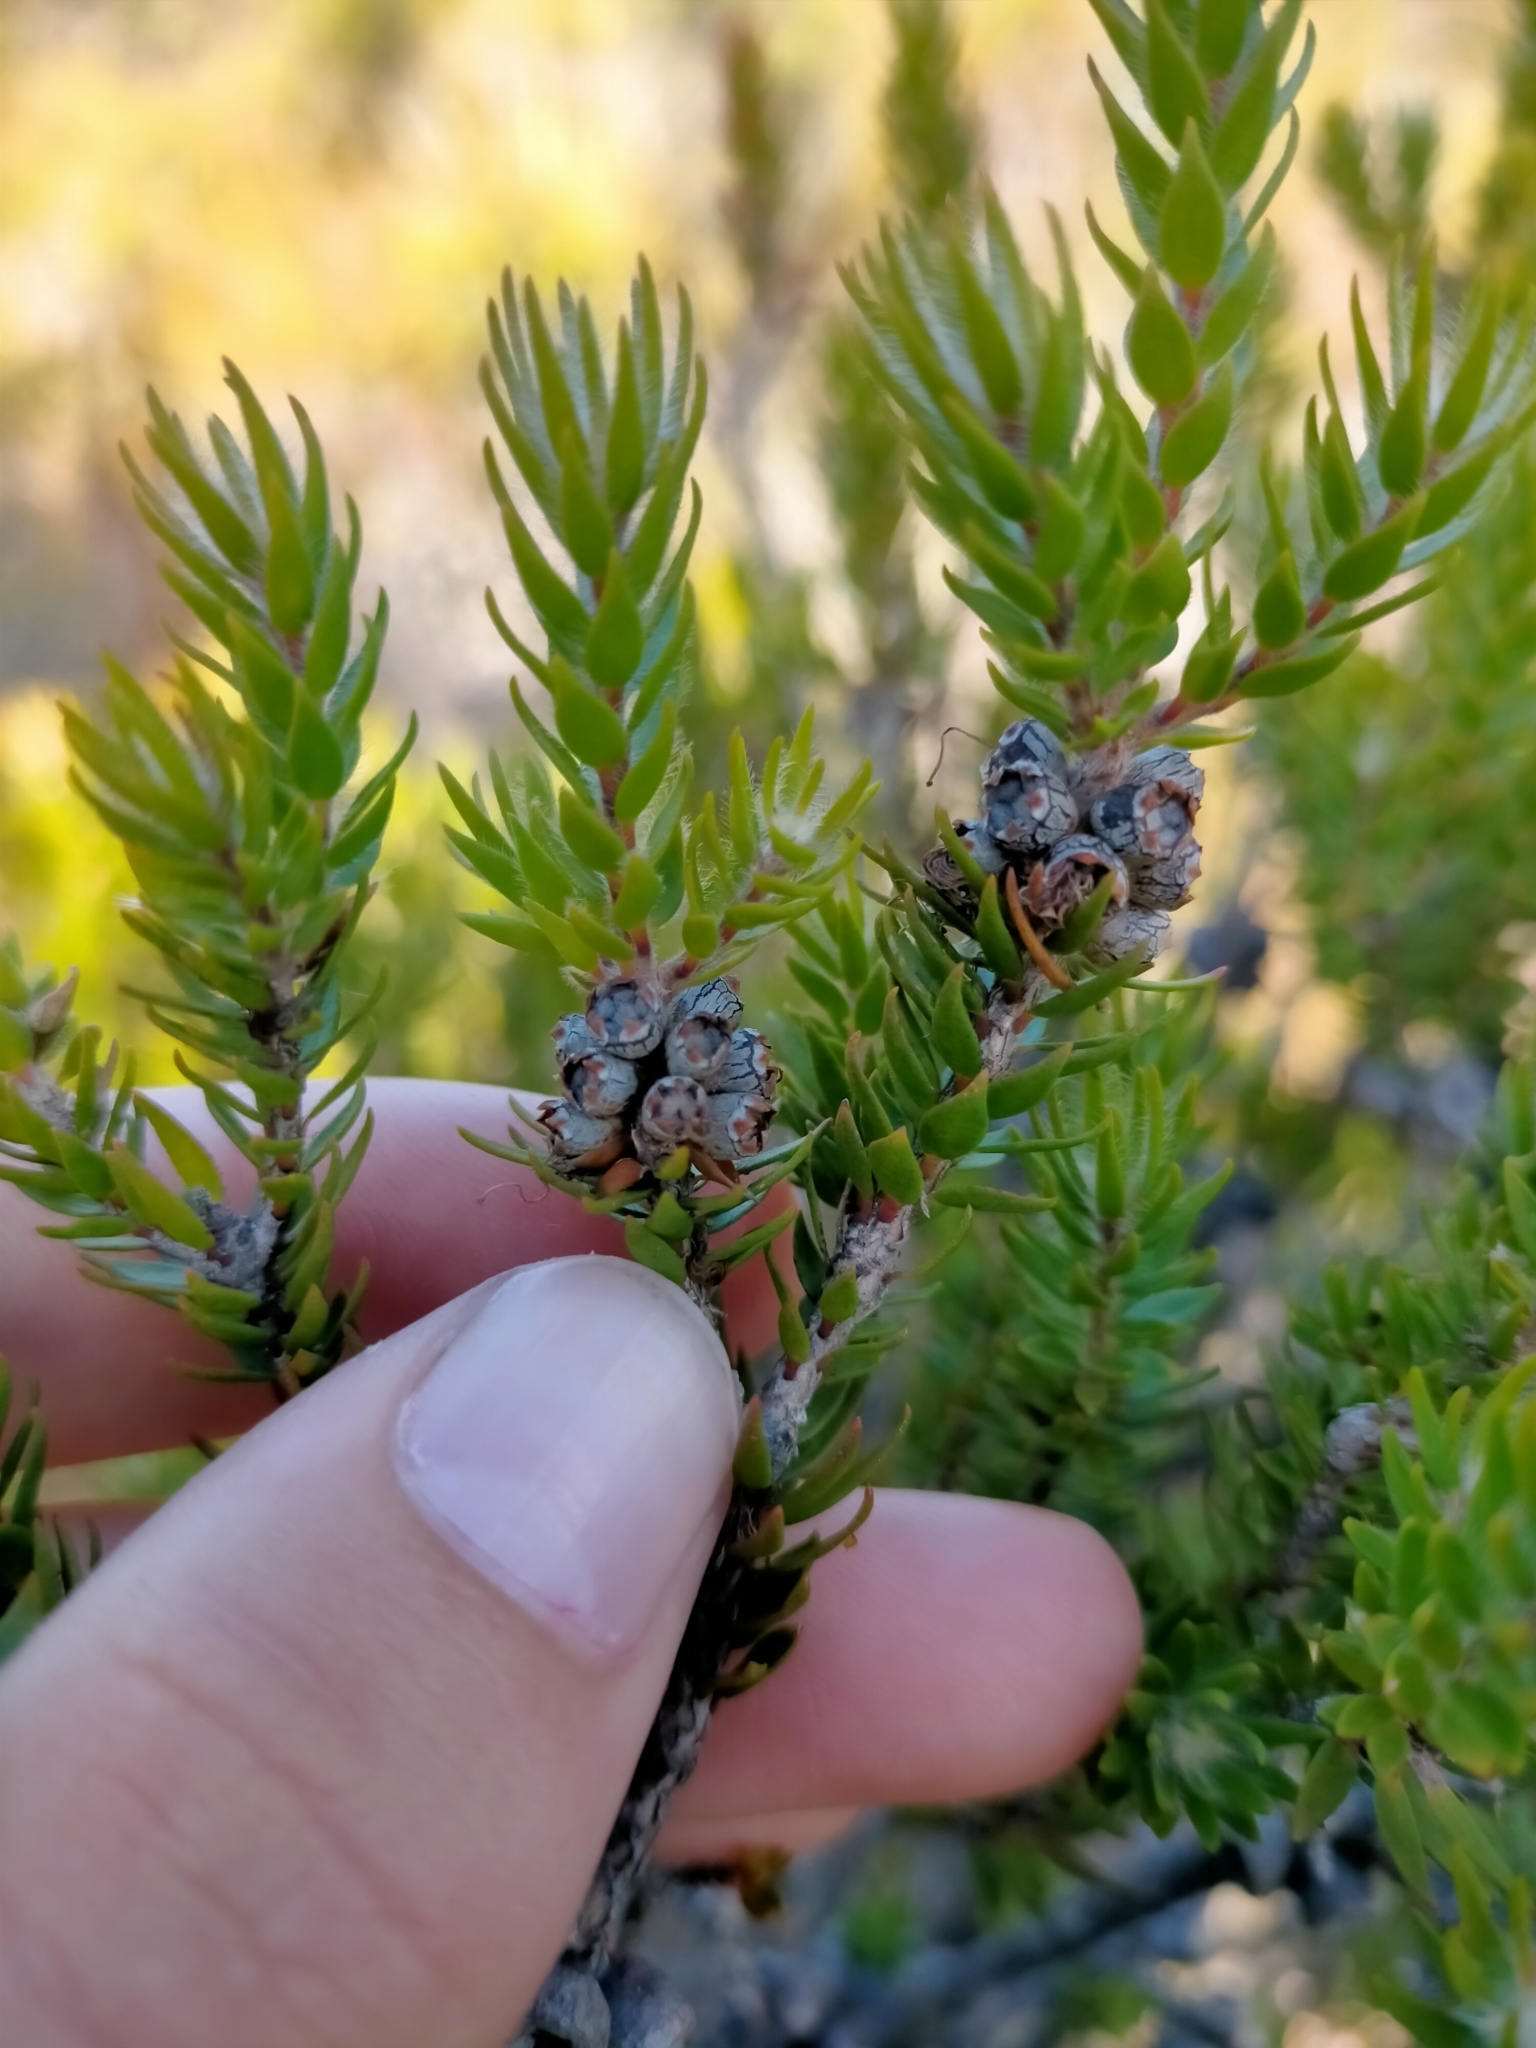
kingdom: Plantae
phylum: Tracheophyta
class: Magnoliopsida
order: Myrtales
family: Myrtaceae
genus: Melaleuca
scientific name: Melaleuca squamea
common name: Swamp melaleuca
